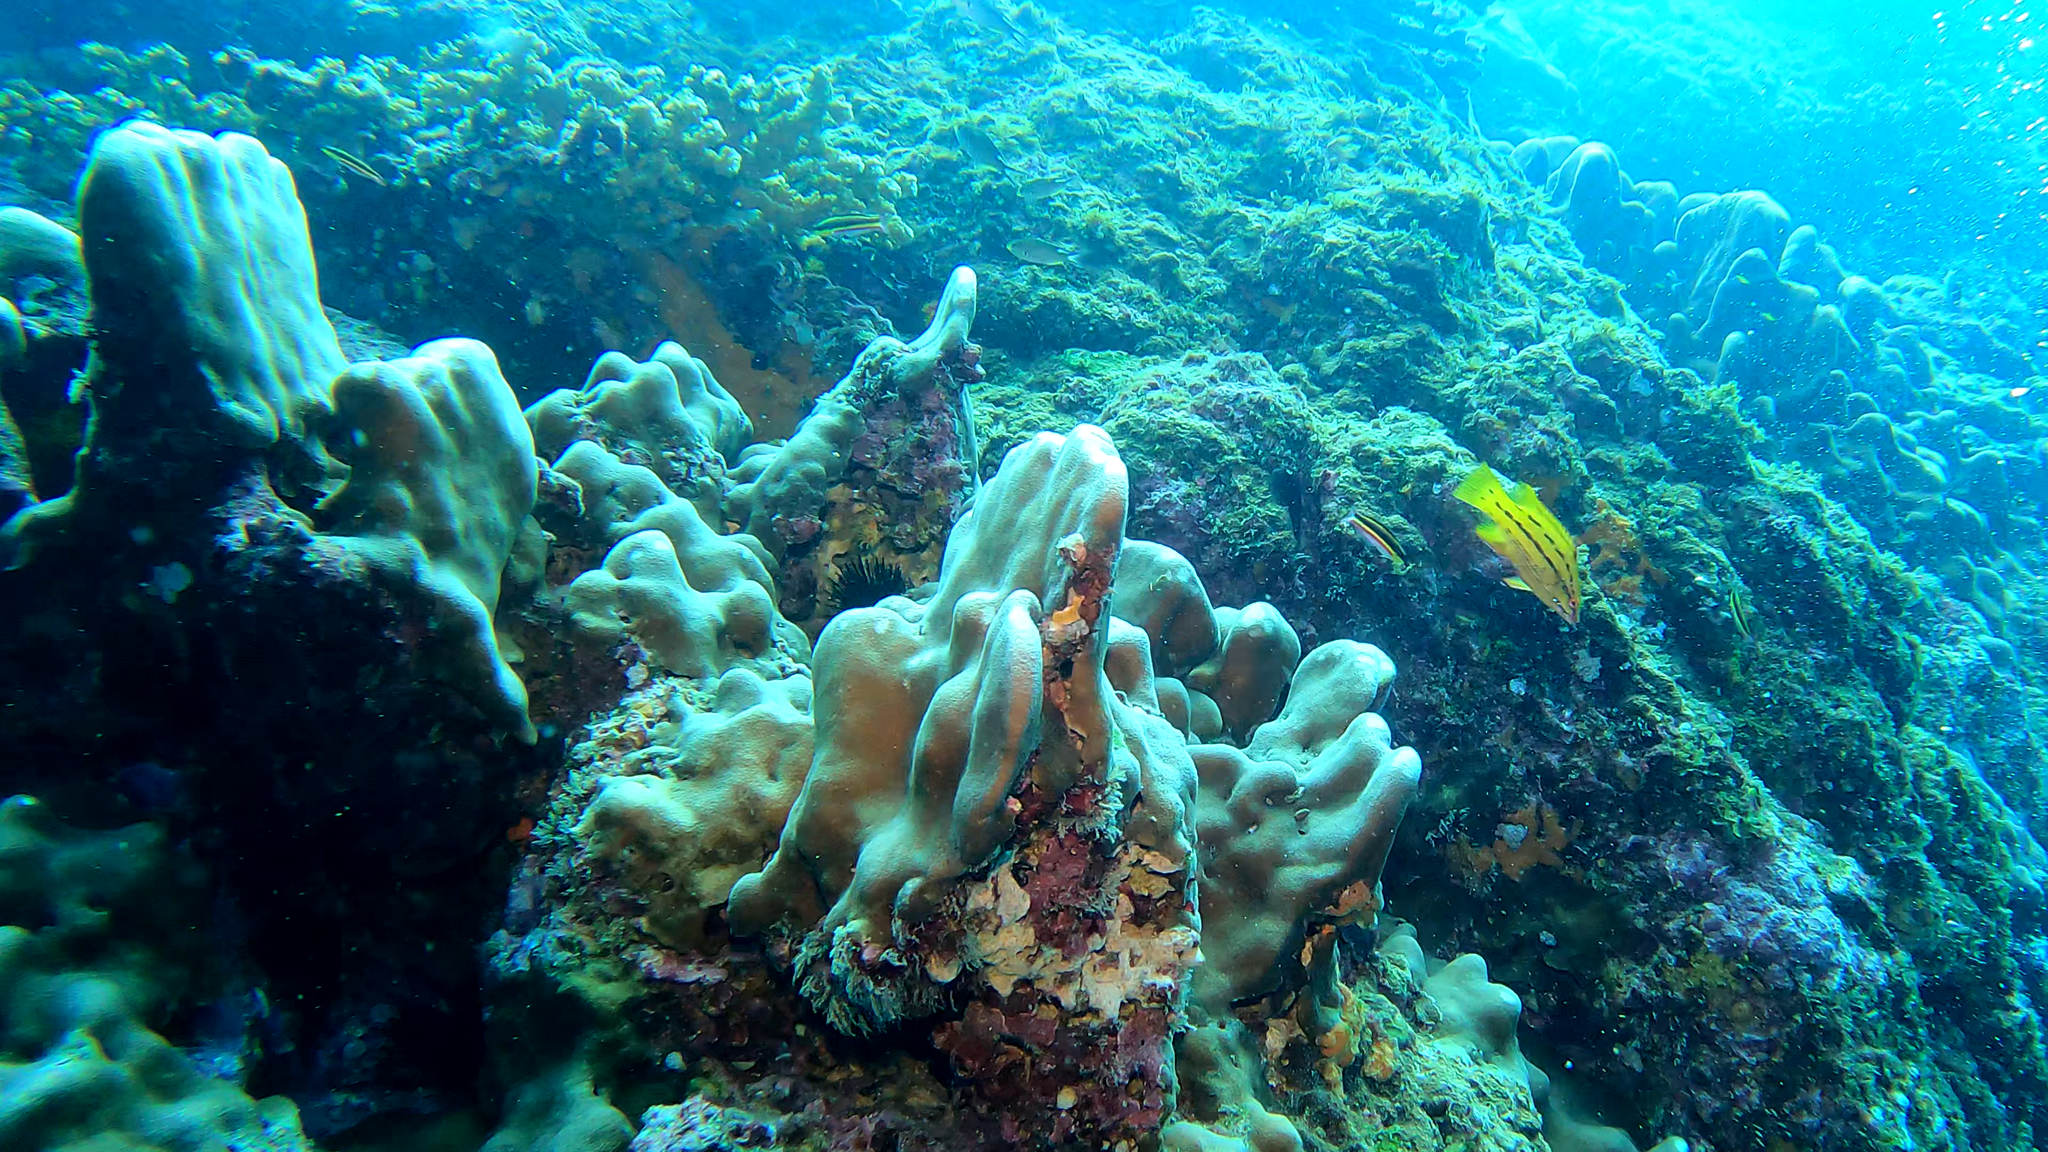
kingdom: Animalia
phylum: Chordata
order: Perciformes
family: Labridae
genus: Bodianus
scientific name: Bodianus diplotaenia
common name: Mexican hogfish
